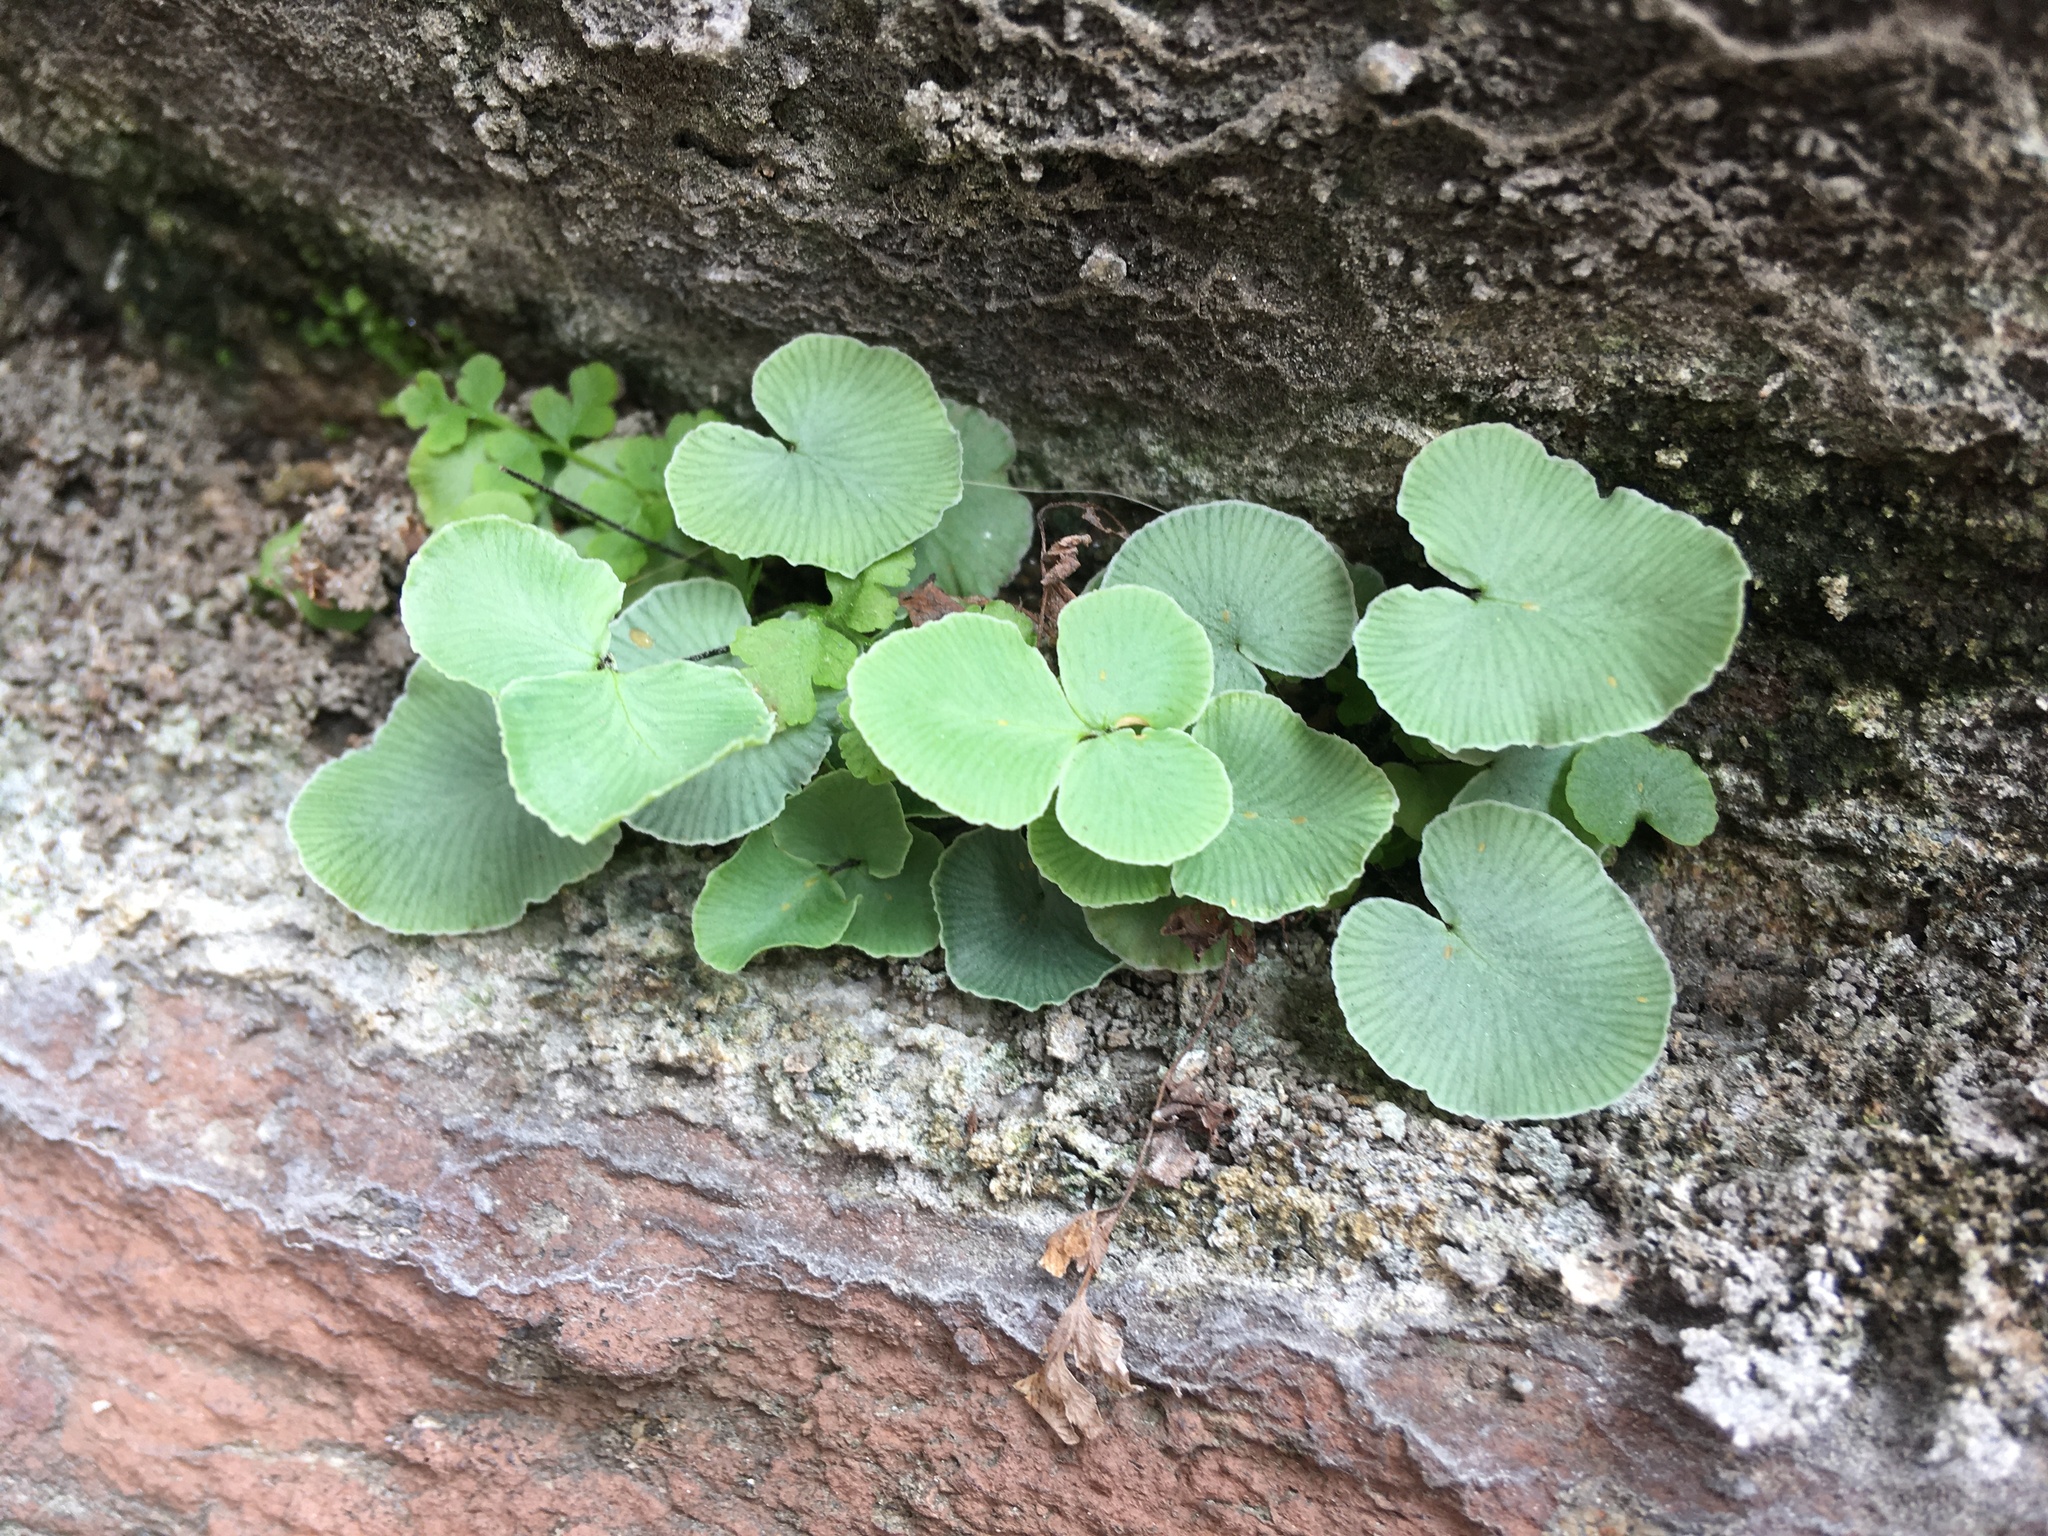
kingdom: Plantae
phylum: Tracheophyta
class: Polypodiopsida
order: Polypodiales
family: Pteridaceae
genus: Pellaea
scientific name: Pellaea atropurpurea
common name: Hairy cliffbrake
